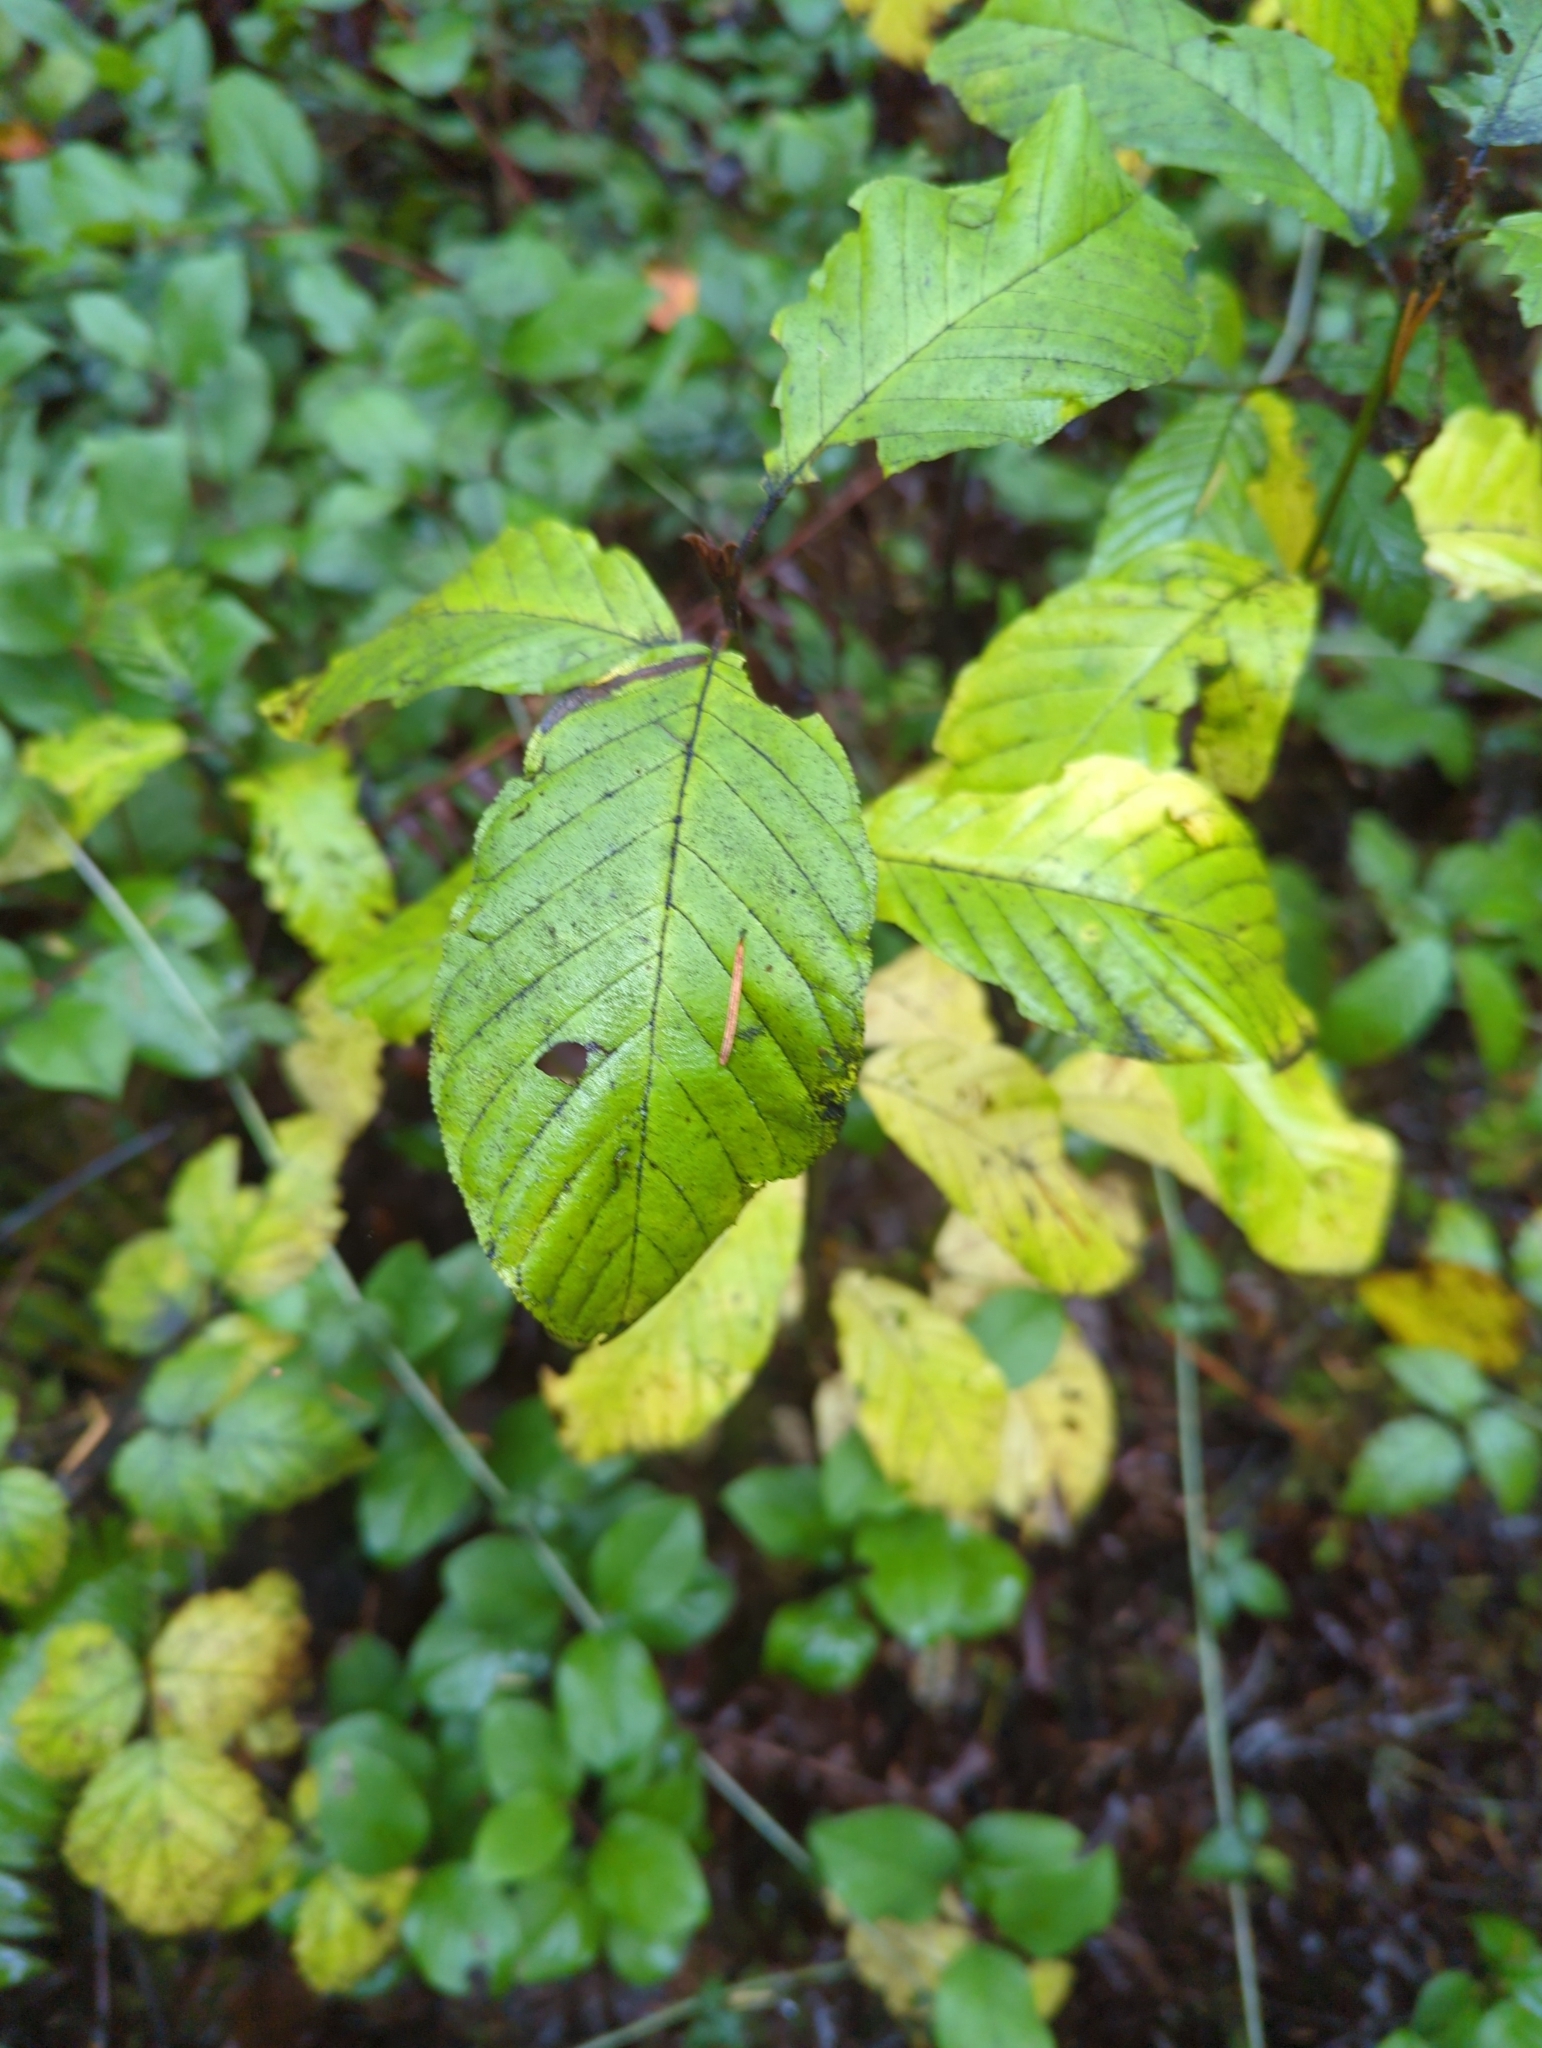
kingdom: Plantae
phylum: Tracheophyta
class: Magnoliopsida
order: Rosales
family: Rhamnaceae
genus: Frangula
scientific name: Frangula purshiana
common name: Cascara buckthorn
